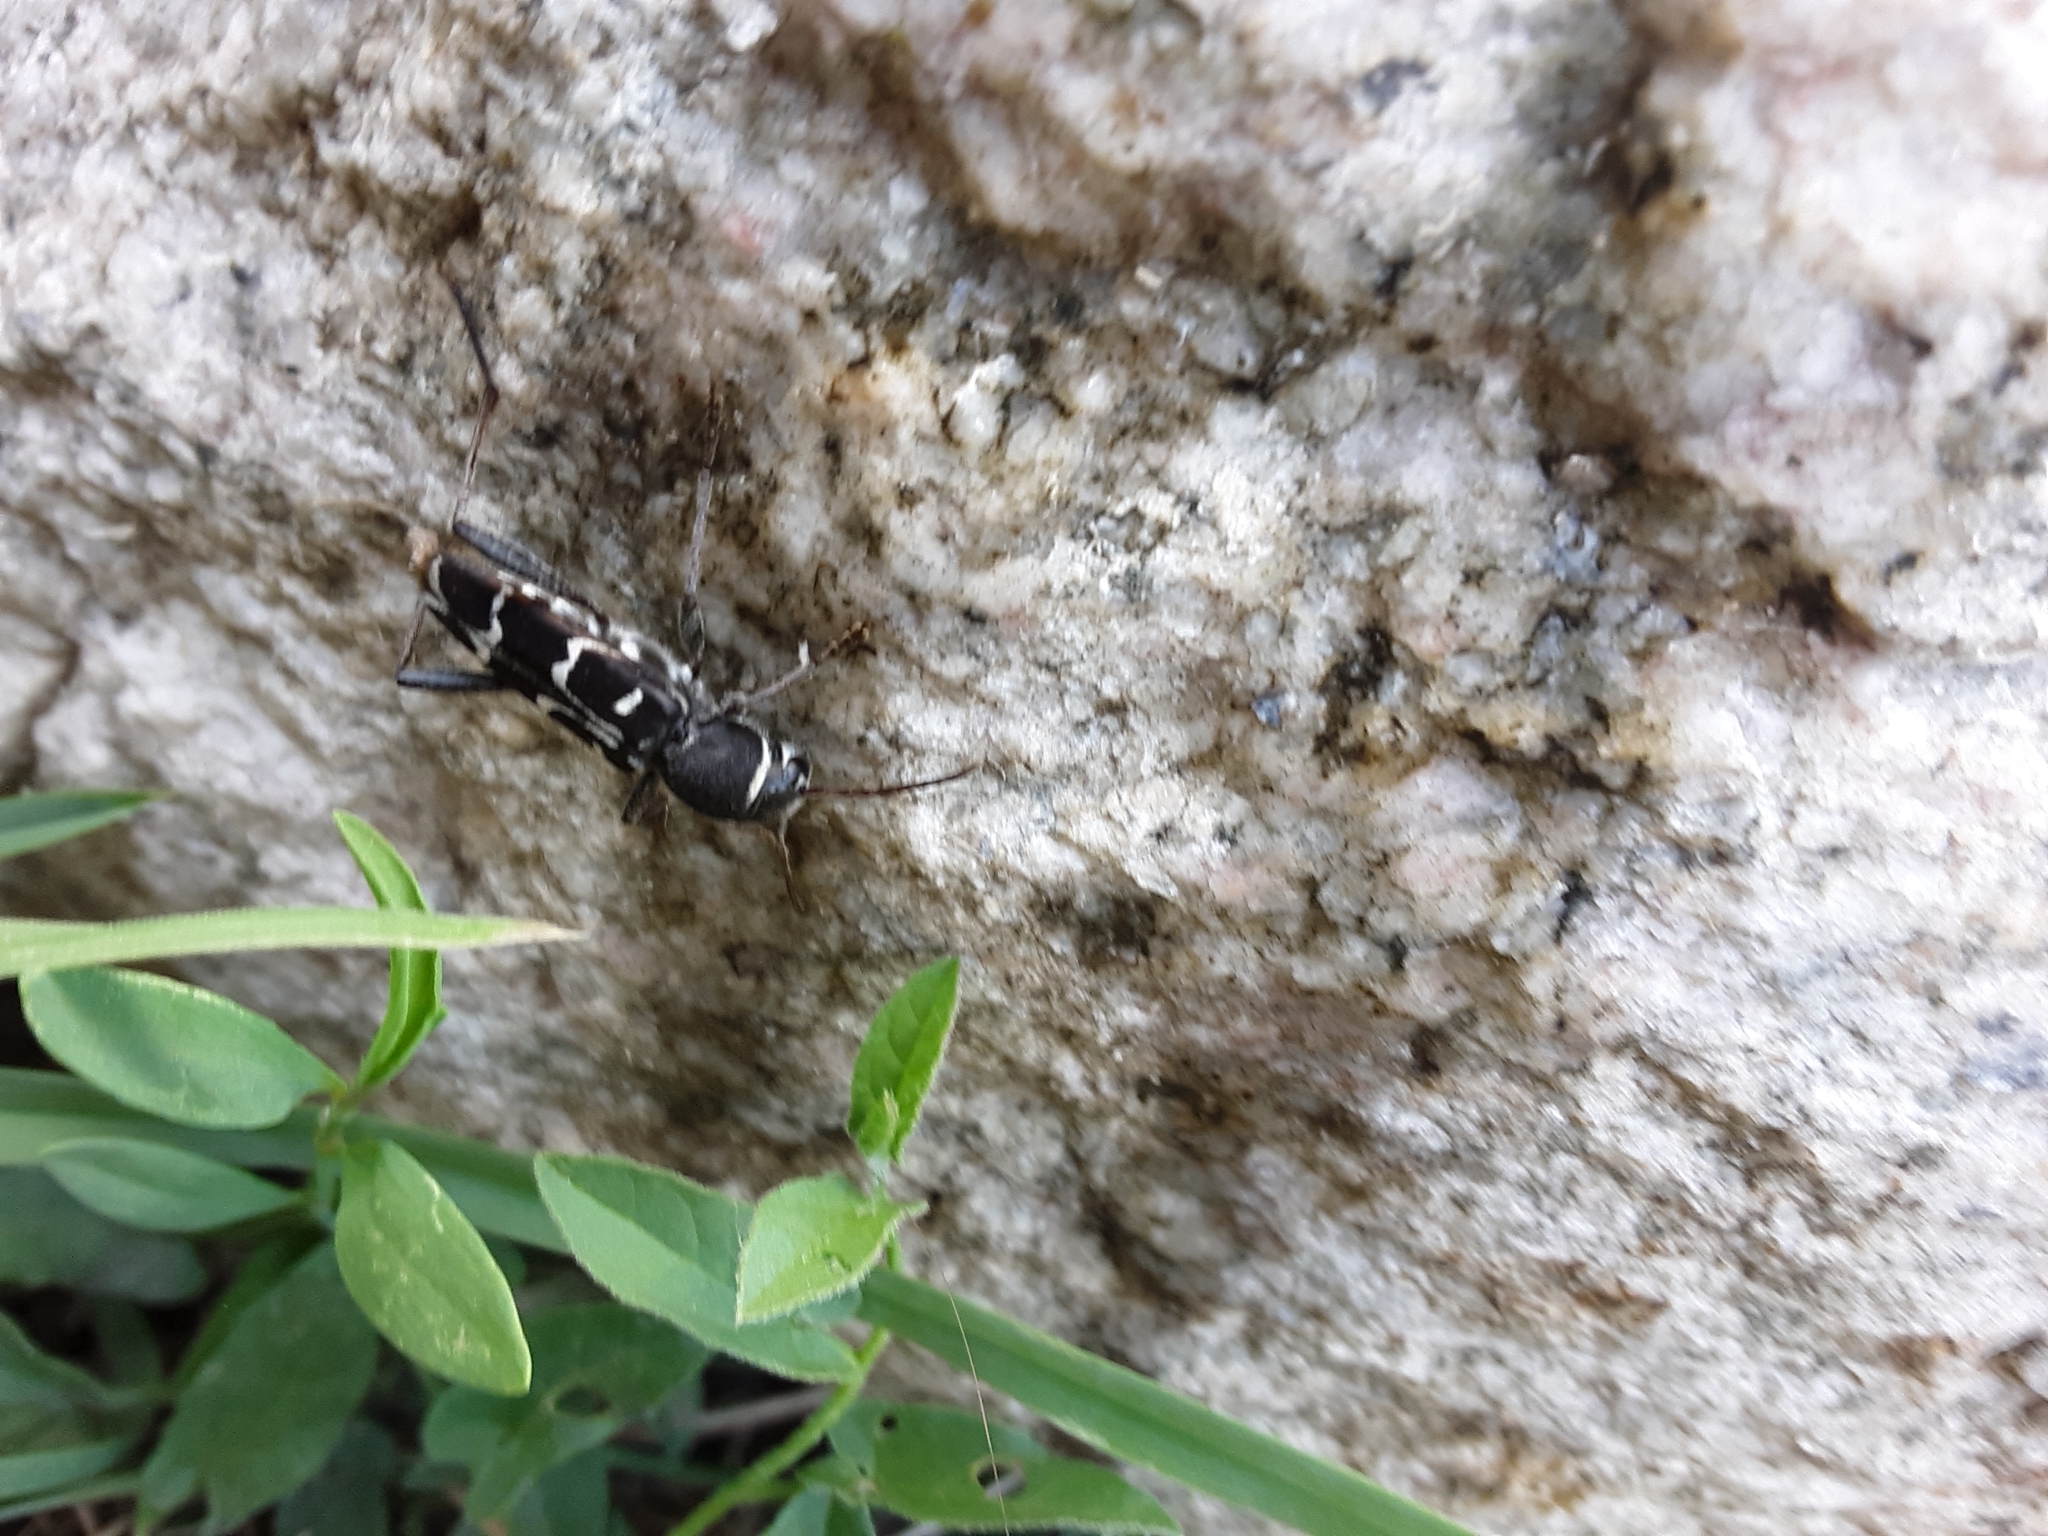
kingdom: Animalia
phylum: Arthropoda
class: Insecta
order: Coleoptera
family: Cerambycidae
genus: Xylotrechus
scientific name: Xylotrechus undulatus
